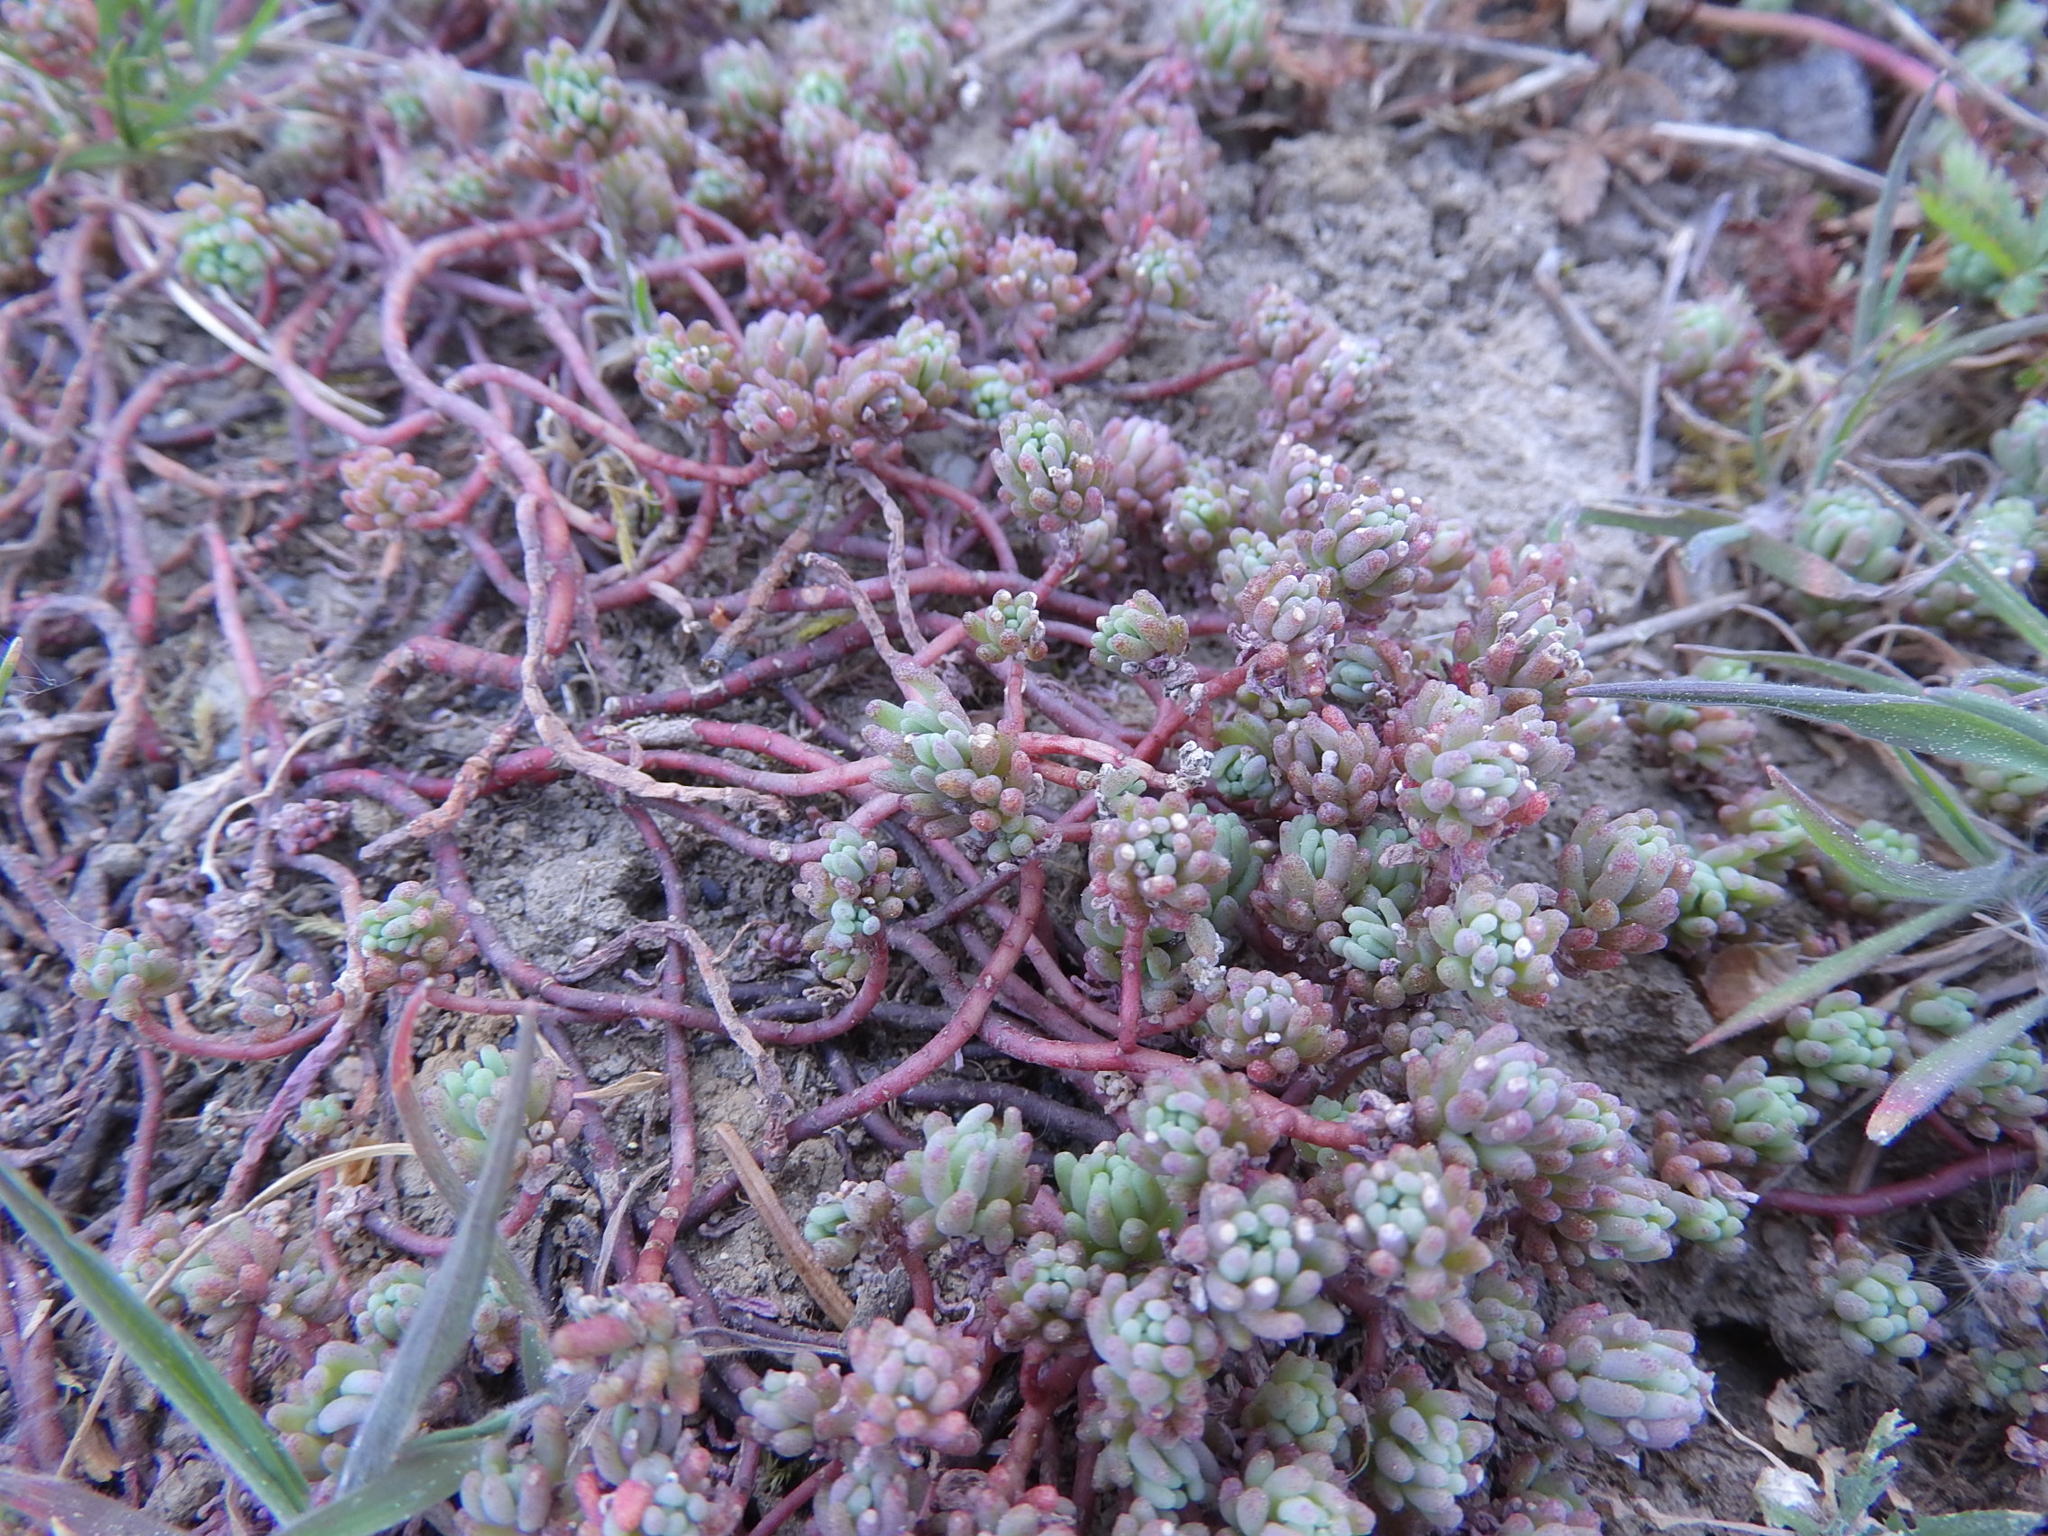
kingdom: Plantae
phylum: Tracheophyta
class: Magnoliopsida
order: Saxifragales
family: Crassulaceae
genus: Sedum
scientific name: Sedum pallidum
